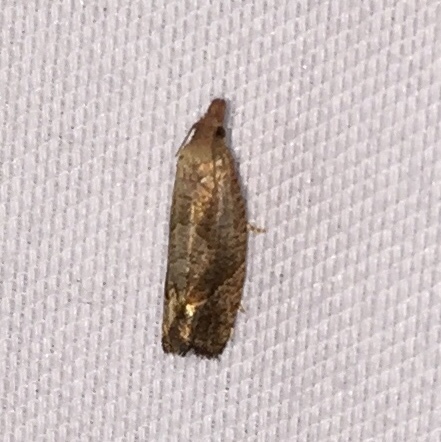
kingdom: Animalia
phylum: Arthropoda
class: Insecta
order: Lepidoptera
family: Tortricidae
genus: Pelochrista
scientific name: Pelochrista derelicta
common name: Derelict pelochrista moth
